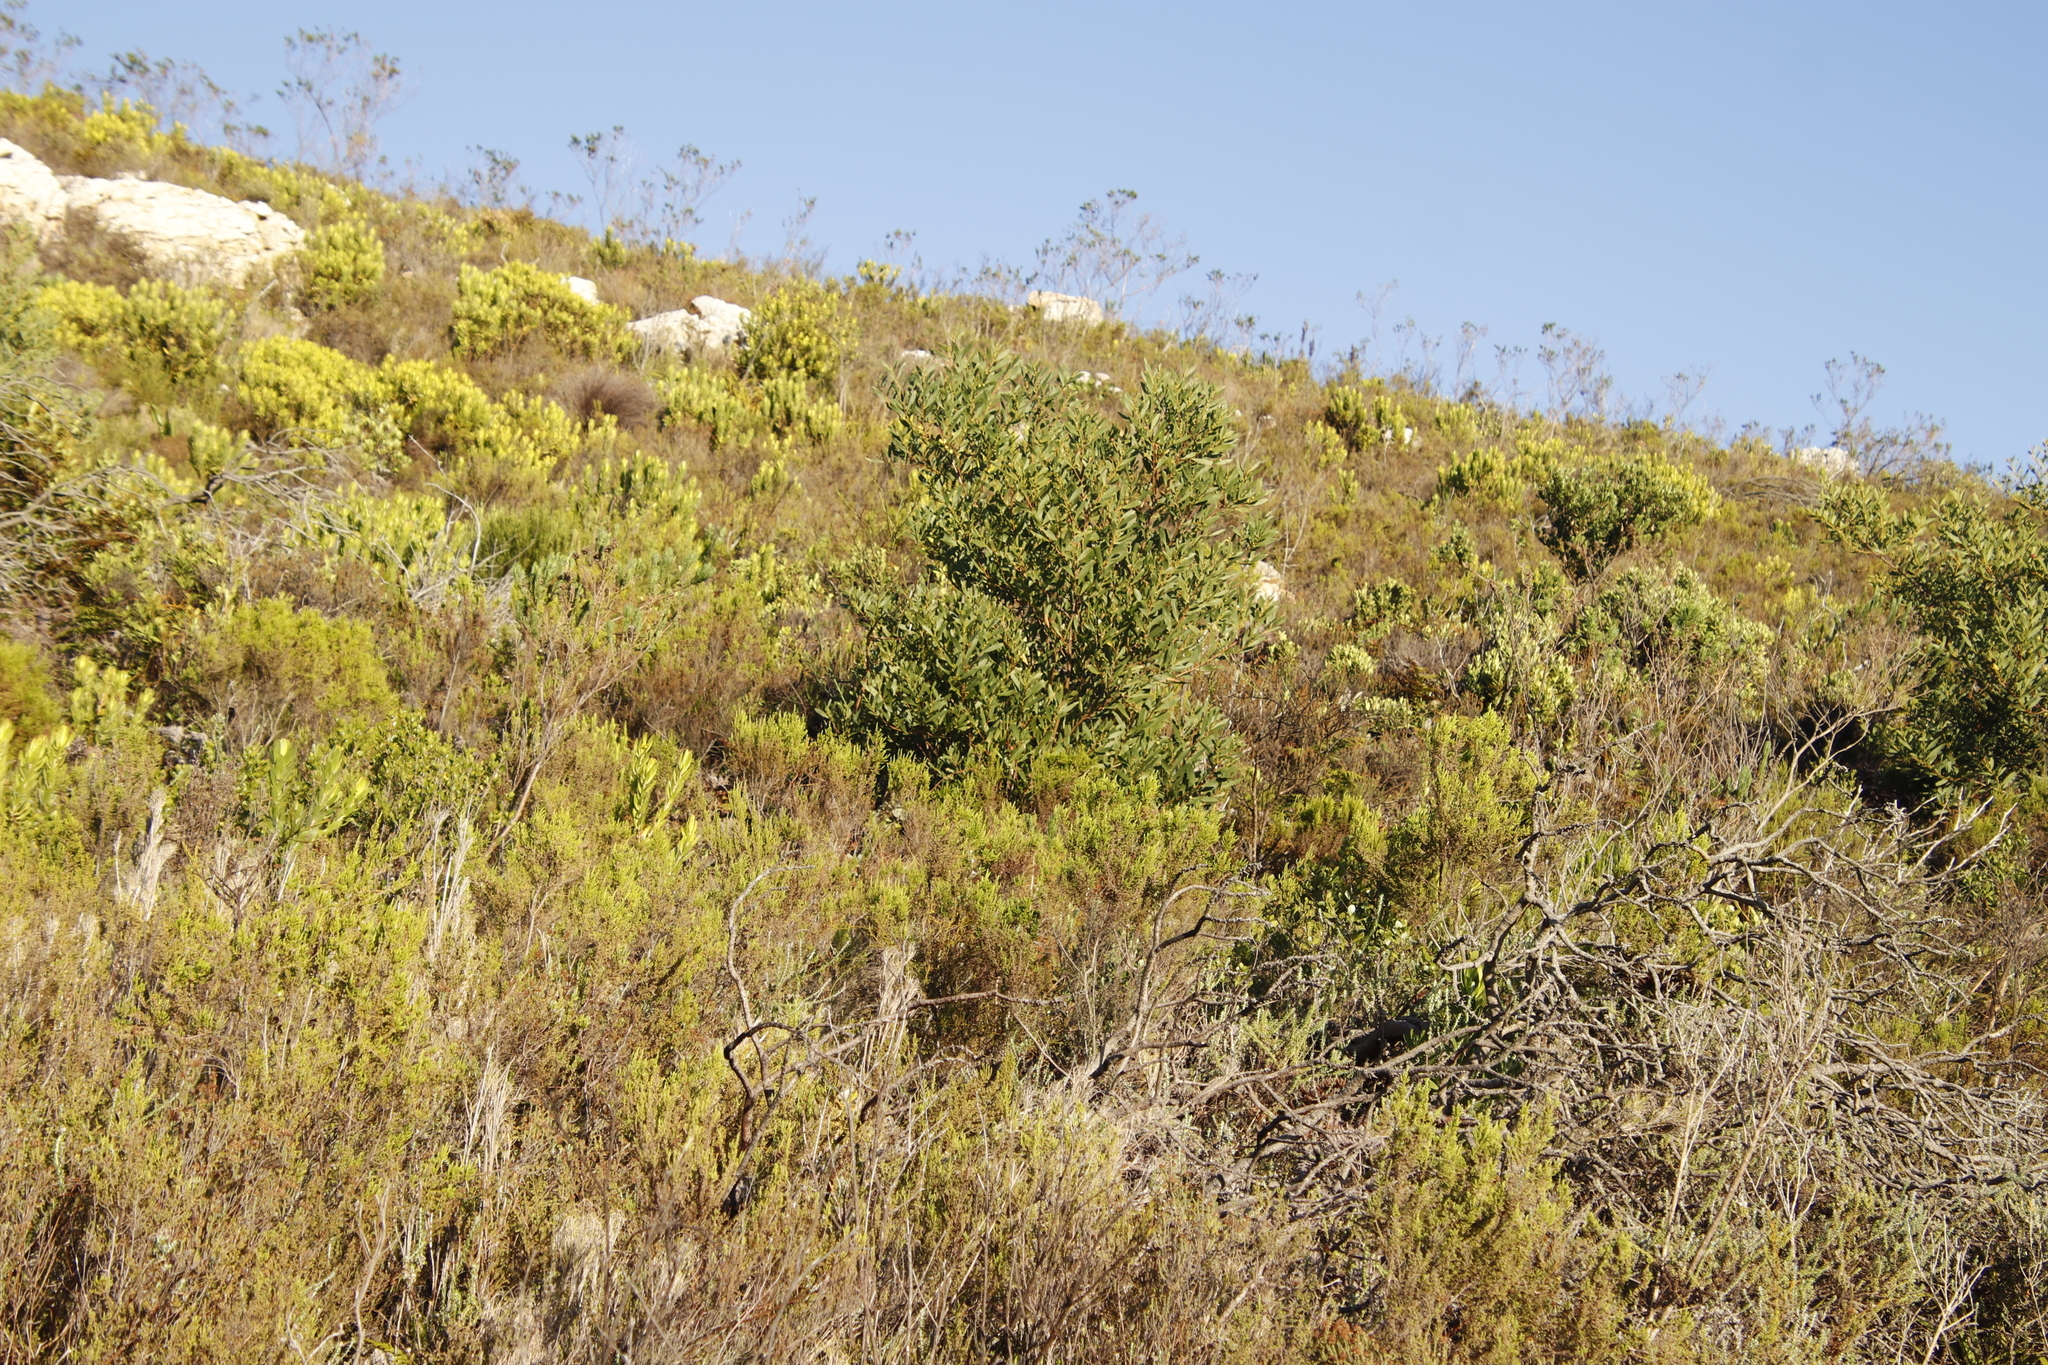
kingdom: Plantae
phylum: Tracheophyta
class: Magnoliopsida
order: Fabales
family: Fabaceae
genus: Acacia
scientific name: Acacia longifolia
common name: Sydney golden wattle
